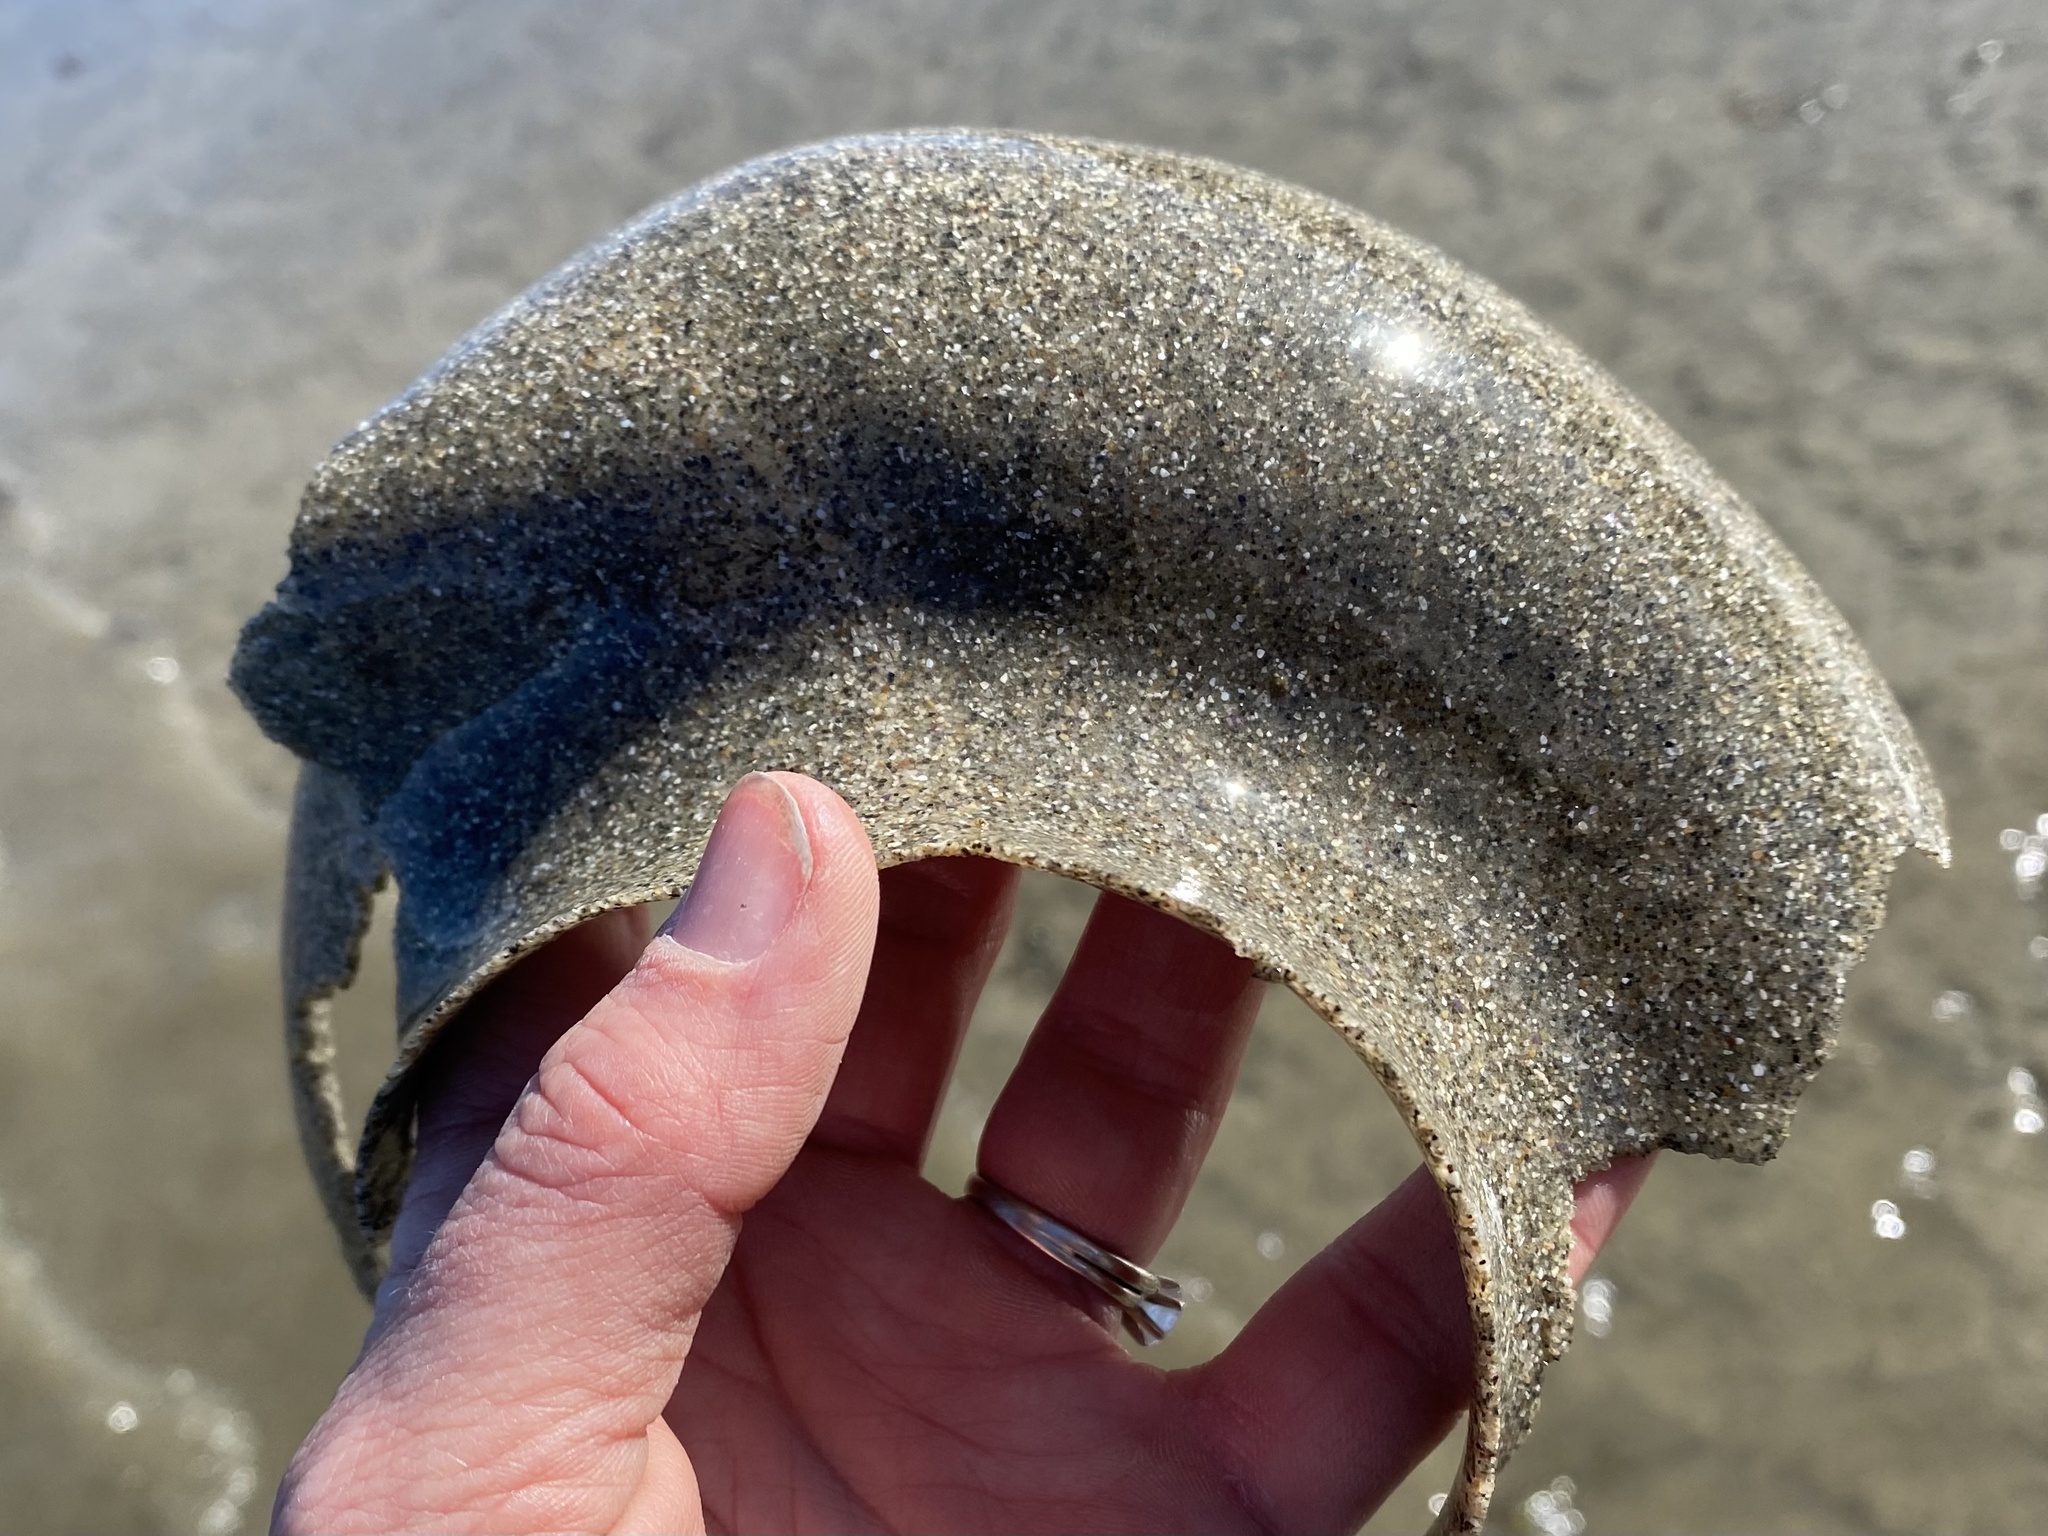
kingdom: Animalia
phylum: Mollusca
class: Gastropoda
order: Littorinimorpha
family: Naticidae
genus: Neverita
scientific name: Neverita lewisii
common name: Lewis' moonsnail
